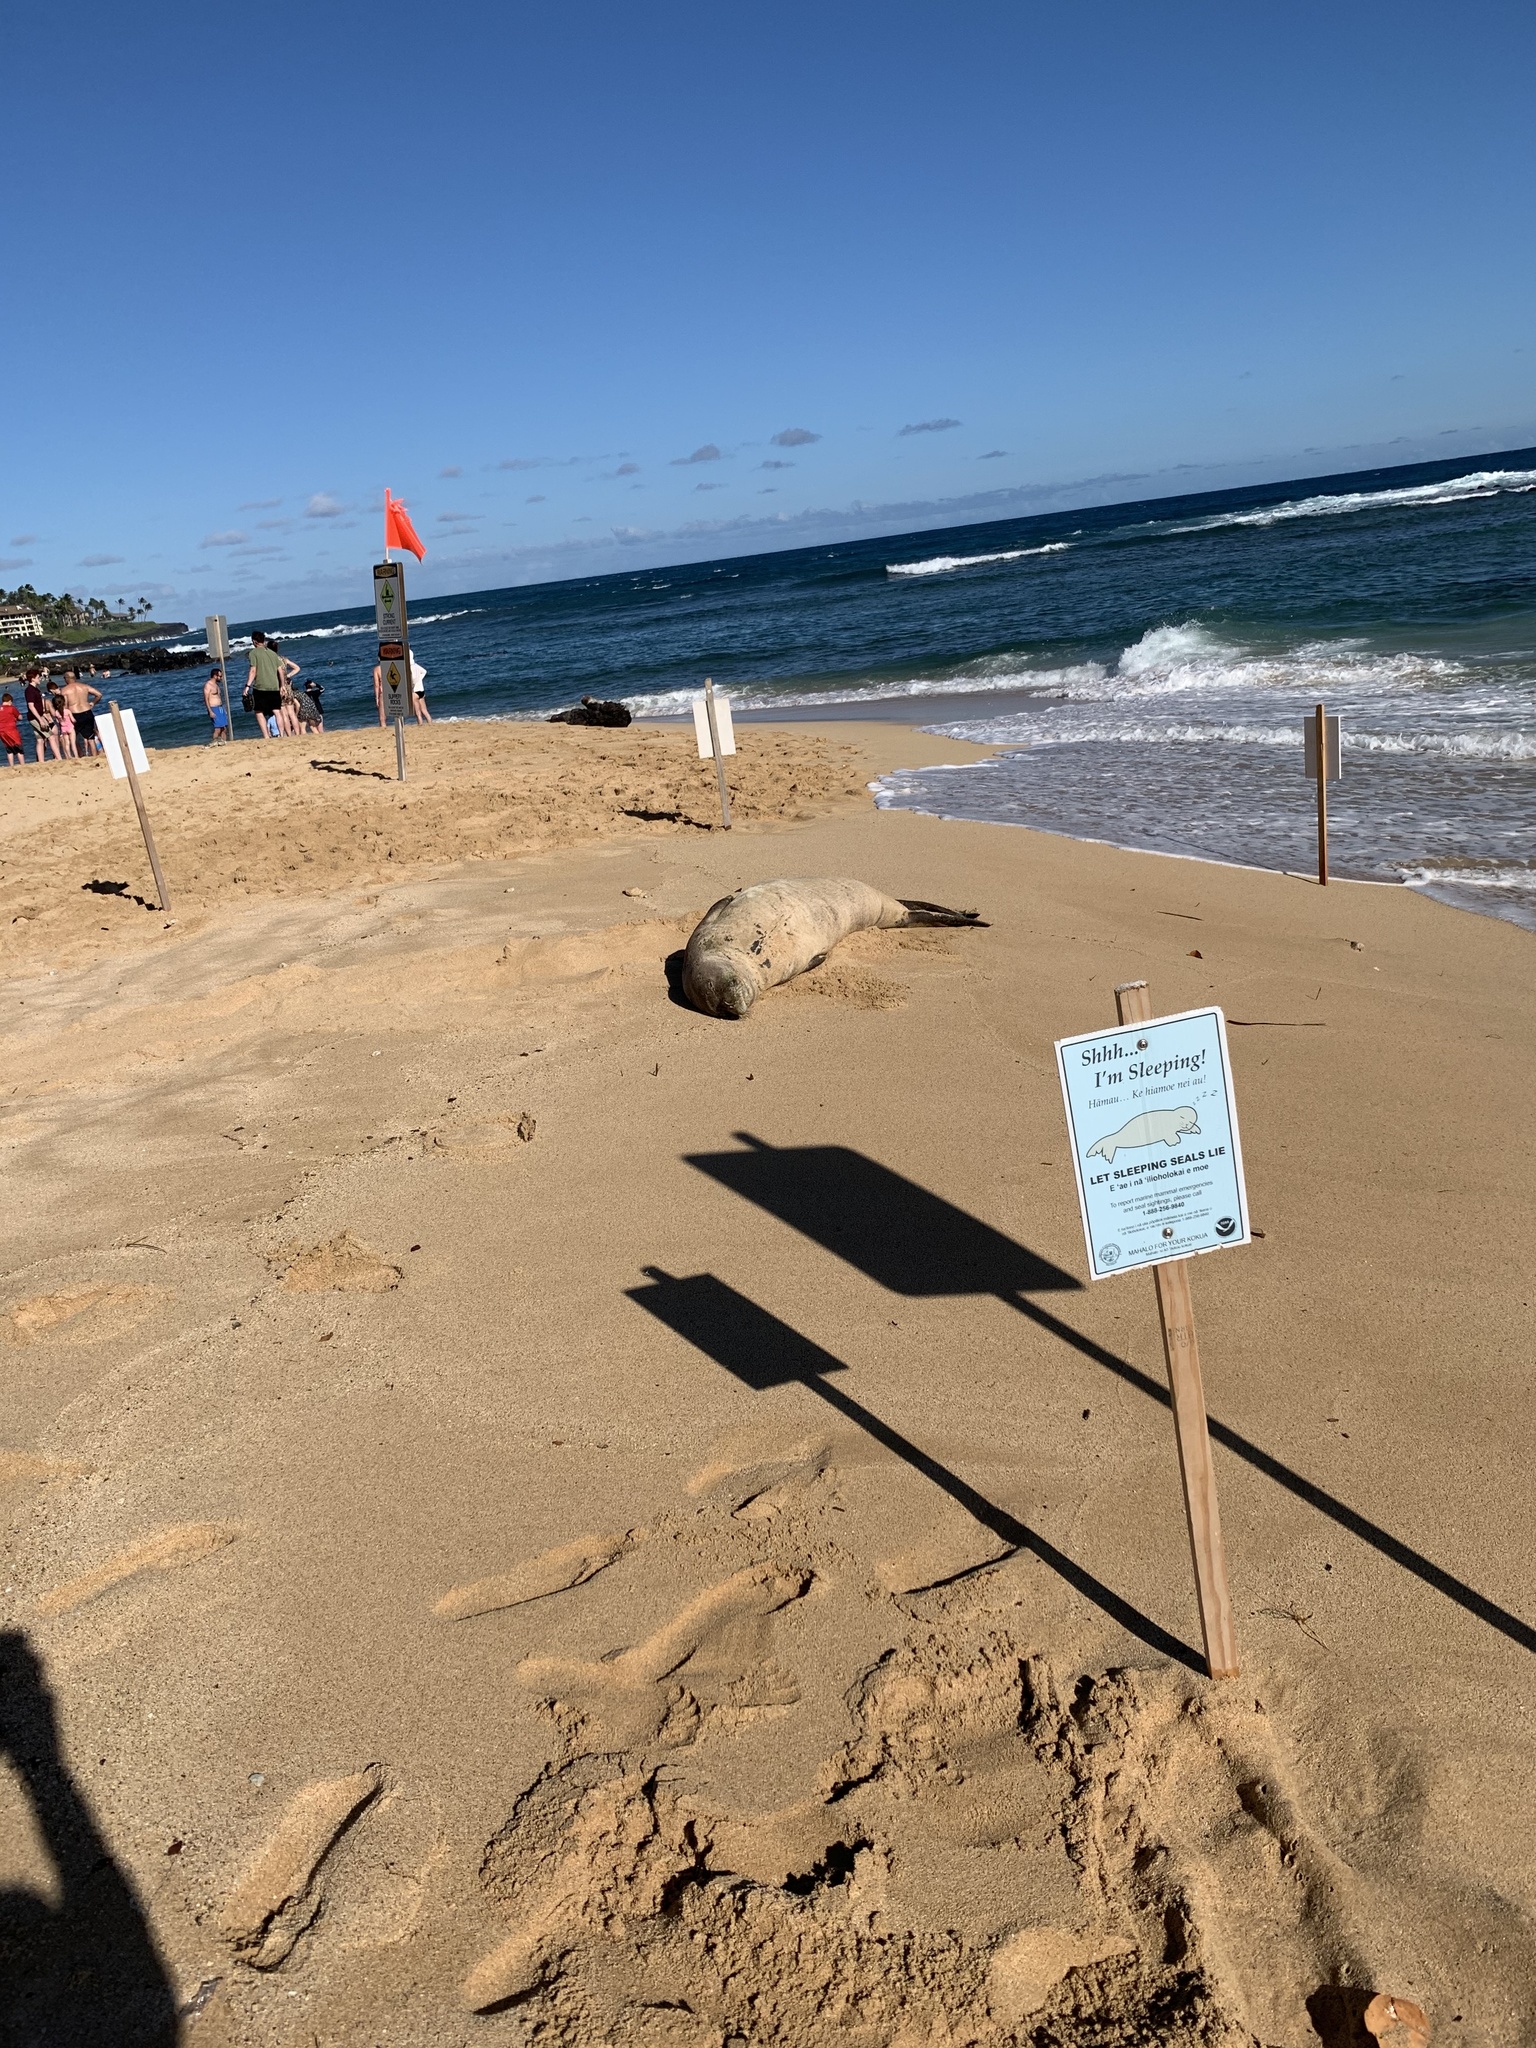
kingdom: Animalia
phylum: Chordata
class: Mammalia
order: Carnivora
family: Phocidae
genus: Neomonachus
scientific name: Neomonachus schauinslandi
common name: Hawaiian monk seal
